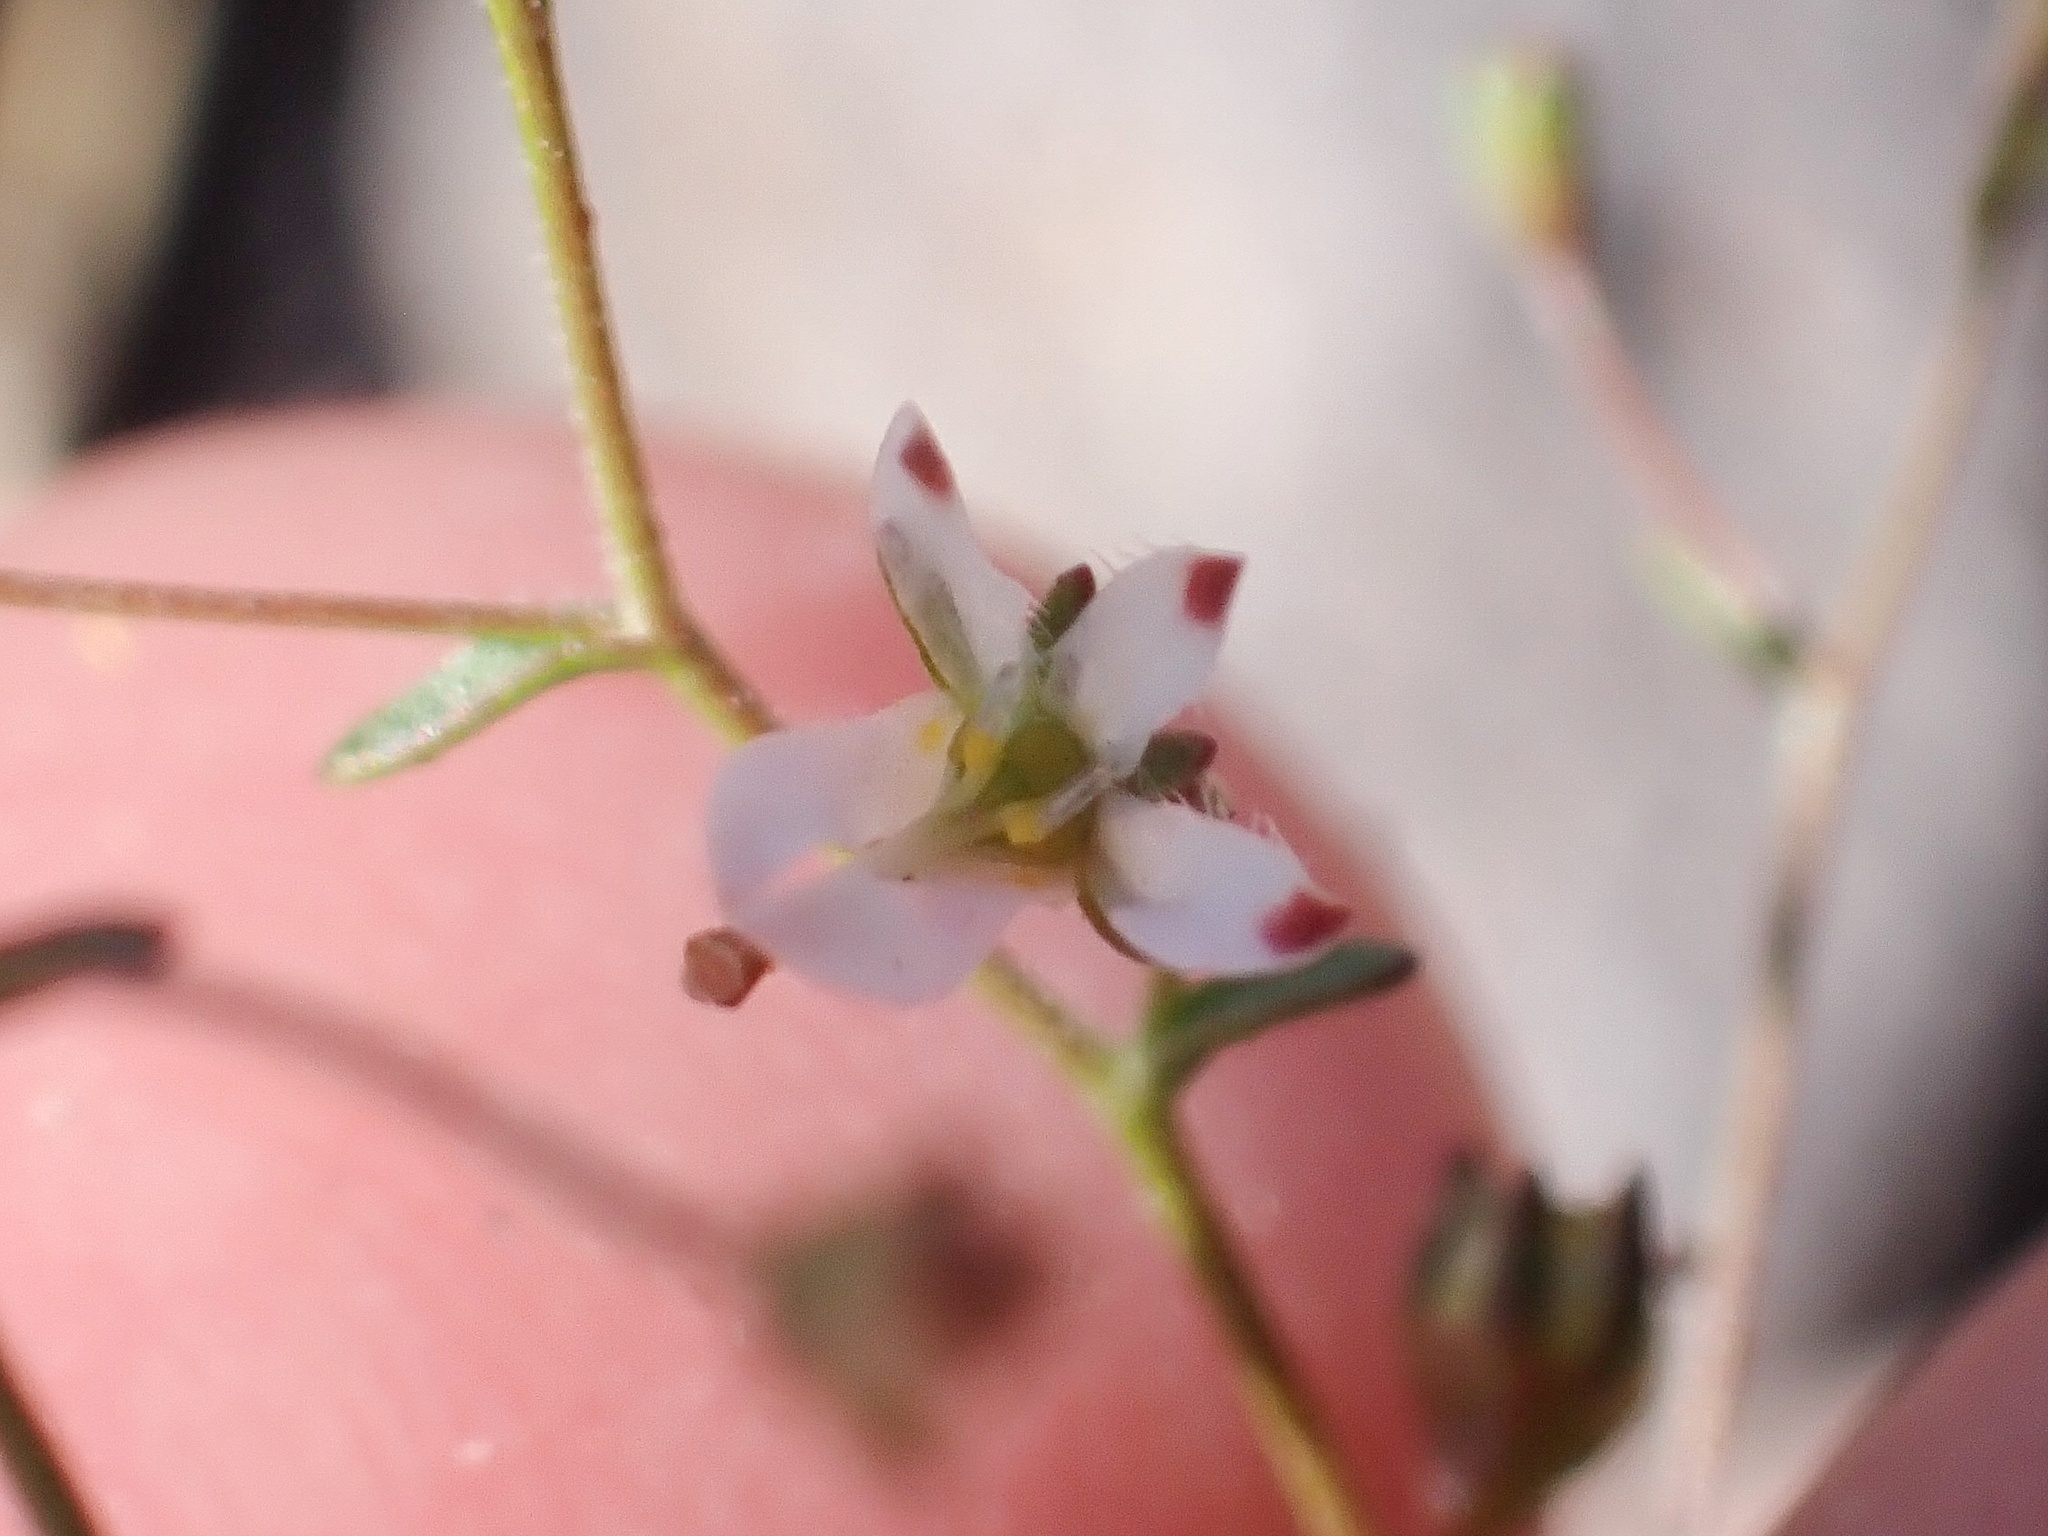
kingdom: Plantae
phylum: Tracheophyta
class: Magnoliopsida
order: Asterales
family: Campanulaceae
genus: Nemacladus
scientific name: Nemacladus orientalis
